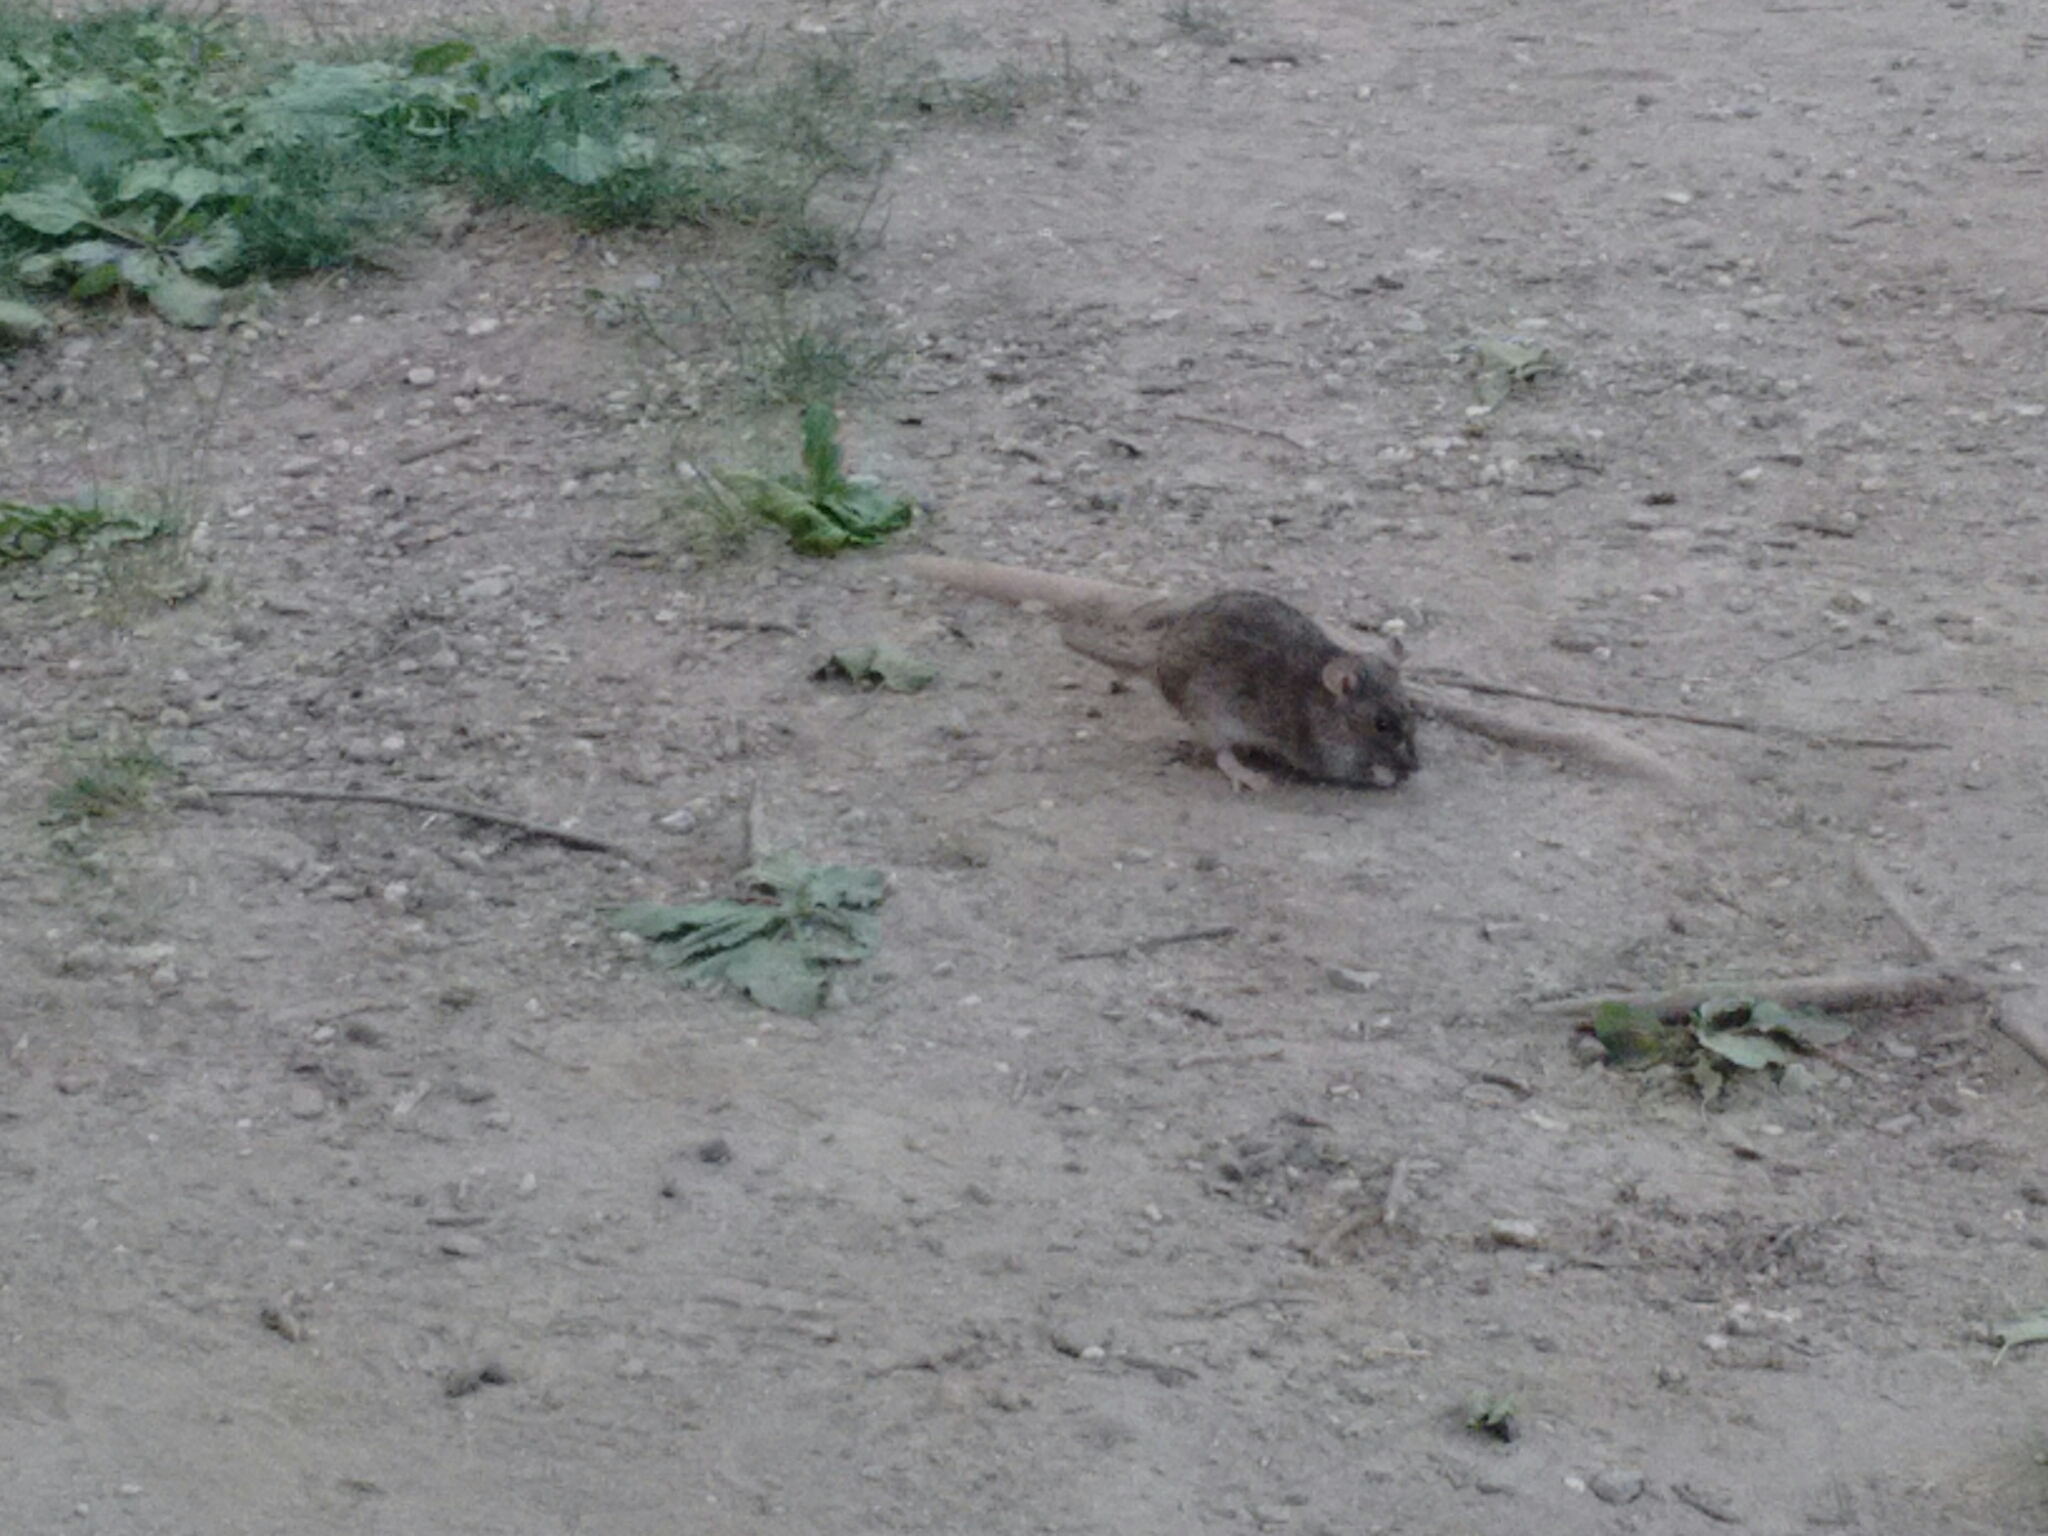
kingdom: Animalia
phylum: Chordata
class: Mammalia
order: Rodentia
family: Muridae
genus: Rattus
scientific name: Rattus norvegicus
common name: Brown rat
